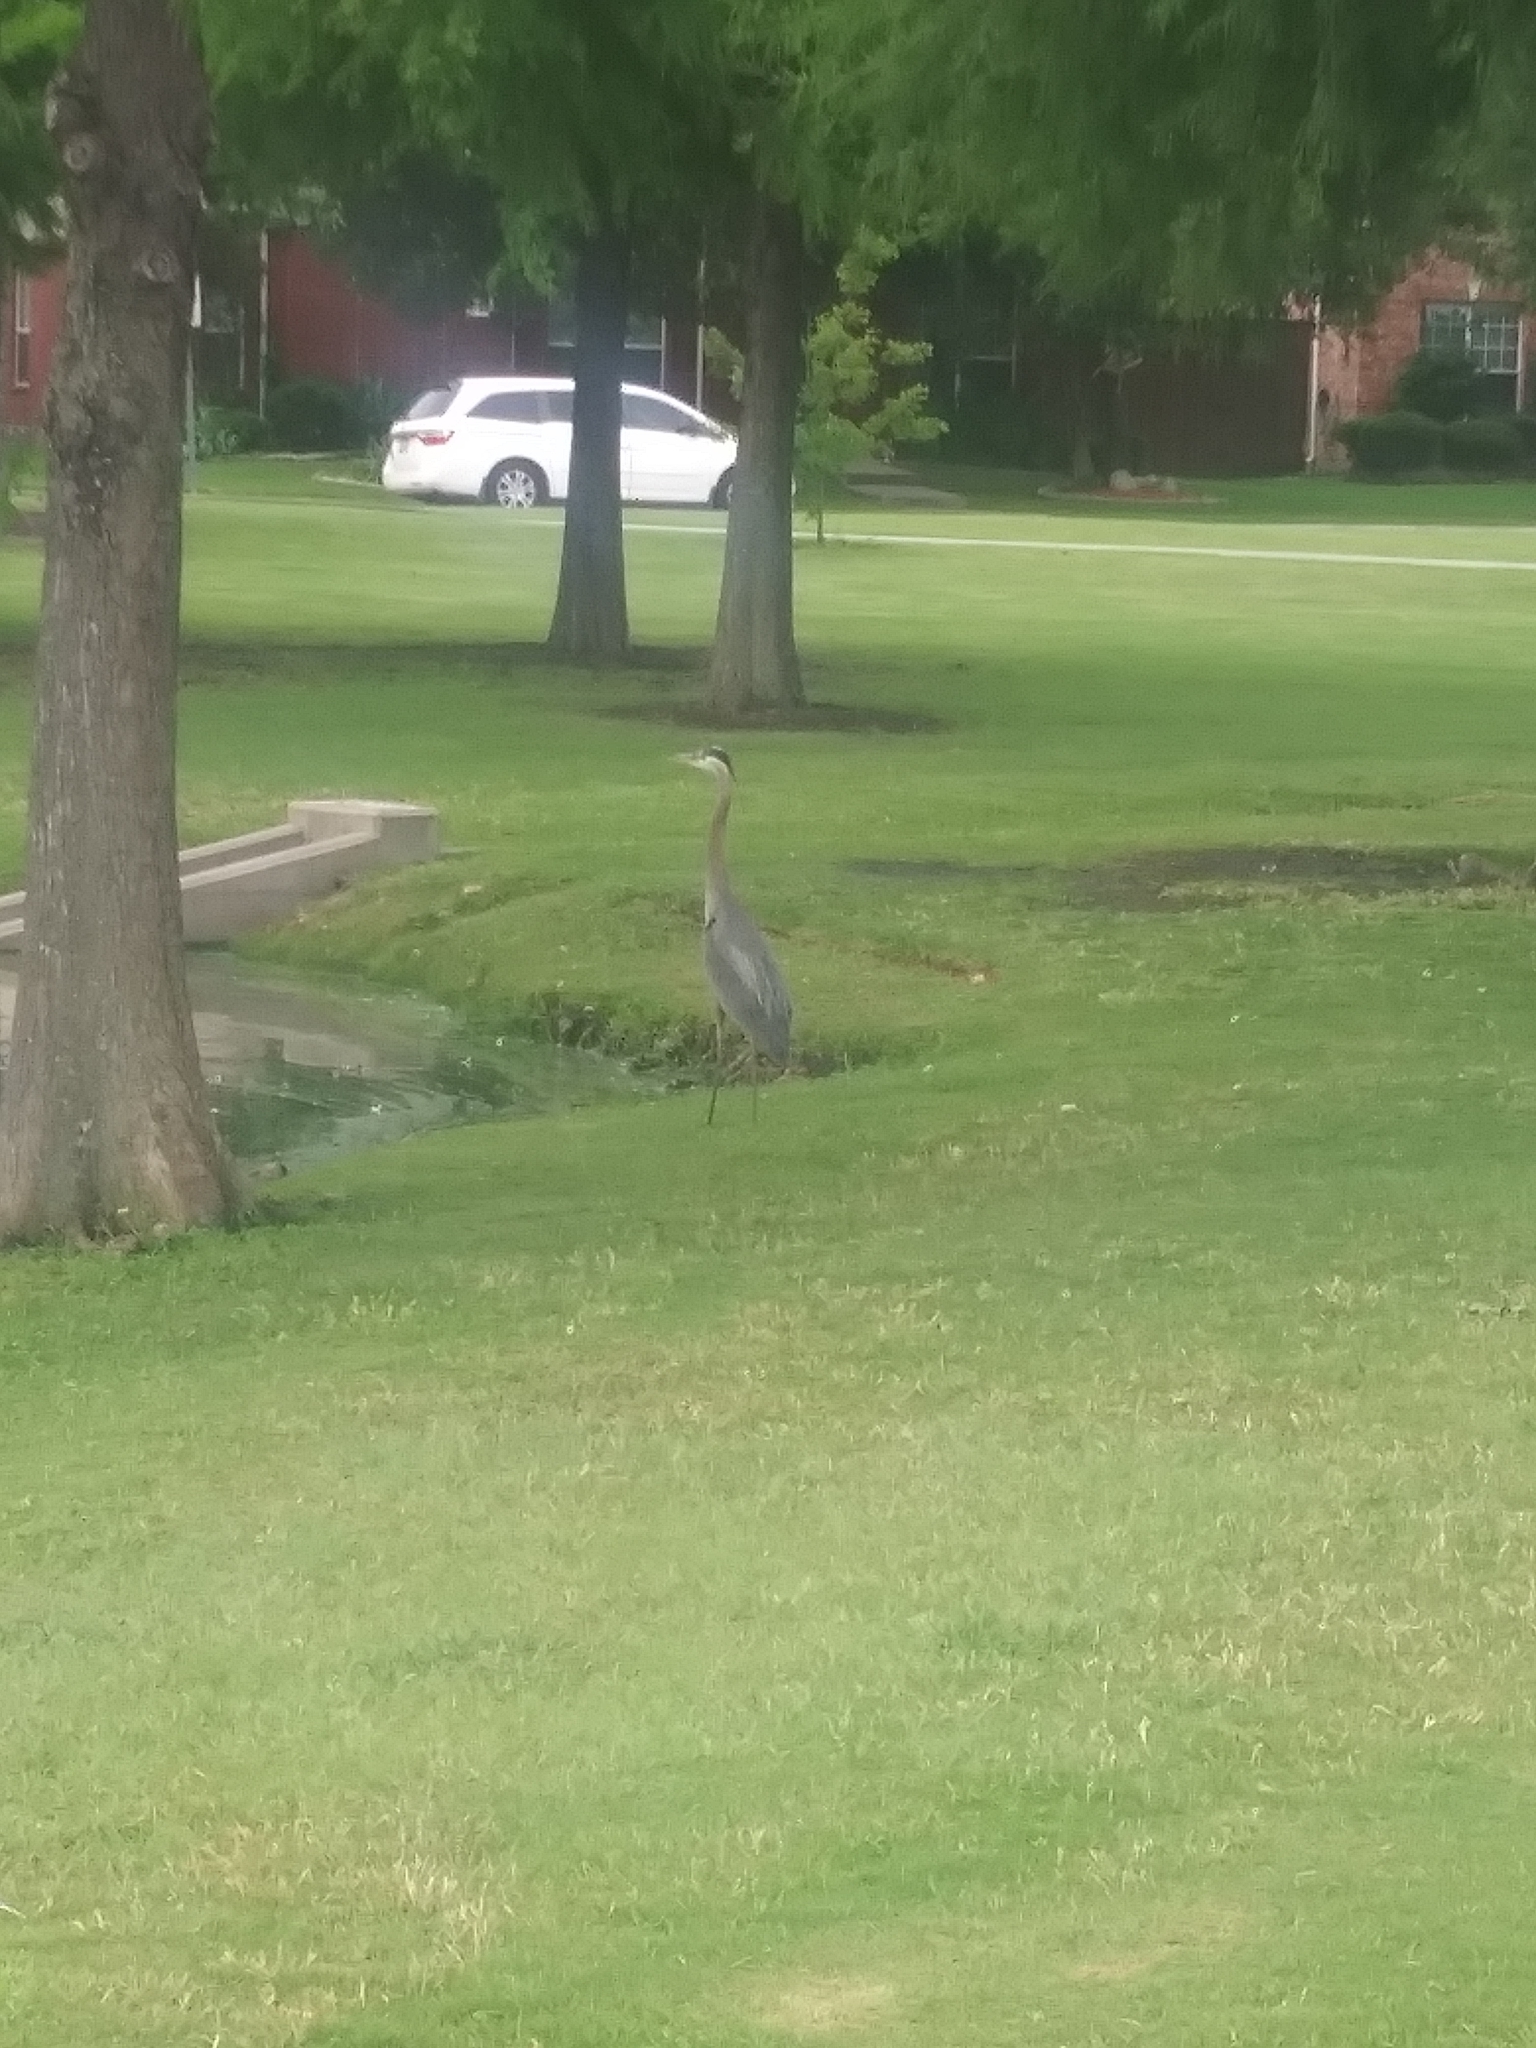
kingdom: Animalia
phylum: Chordata
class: Aves
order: Pelecaniformes
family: Ardeidae
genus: Ardea
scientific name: Ardea herodias
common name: Great blue heron
